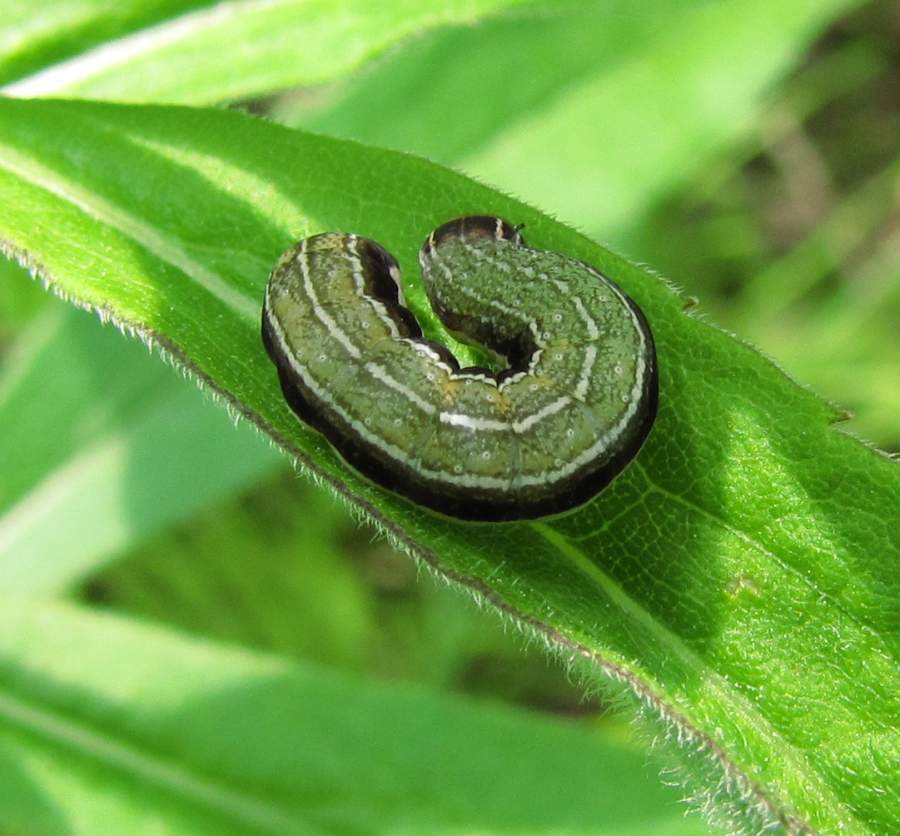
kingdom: Animalia
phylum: Arthropoda
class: Insecta
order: Lepidoptera
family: Noctuidae
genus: Eupsilia
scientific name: Eupsilia devia
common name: Lost sallow
